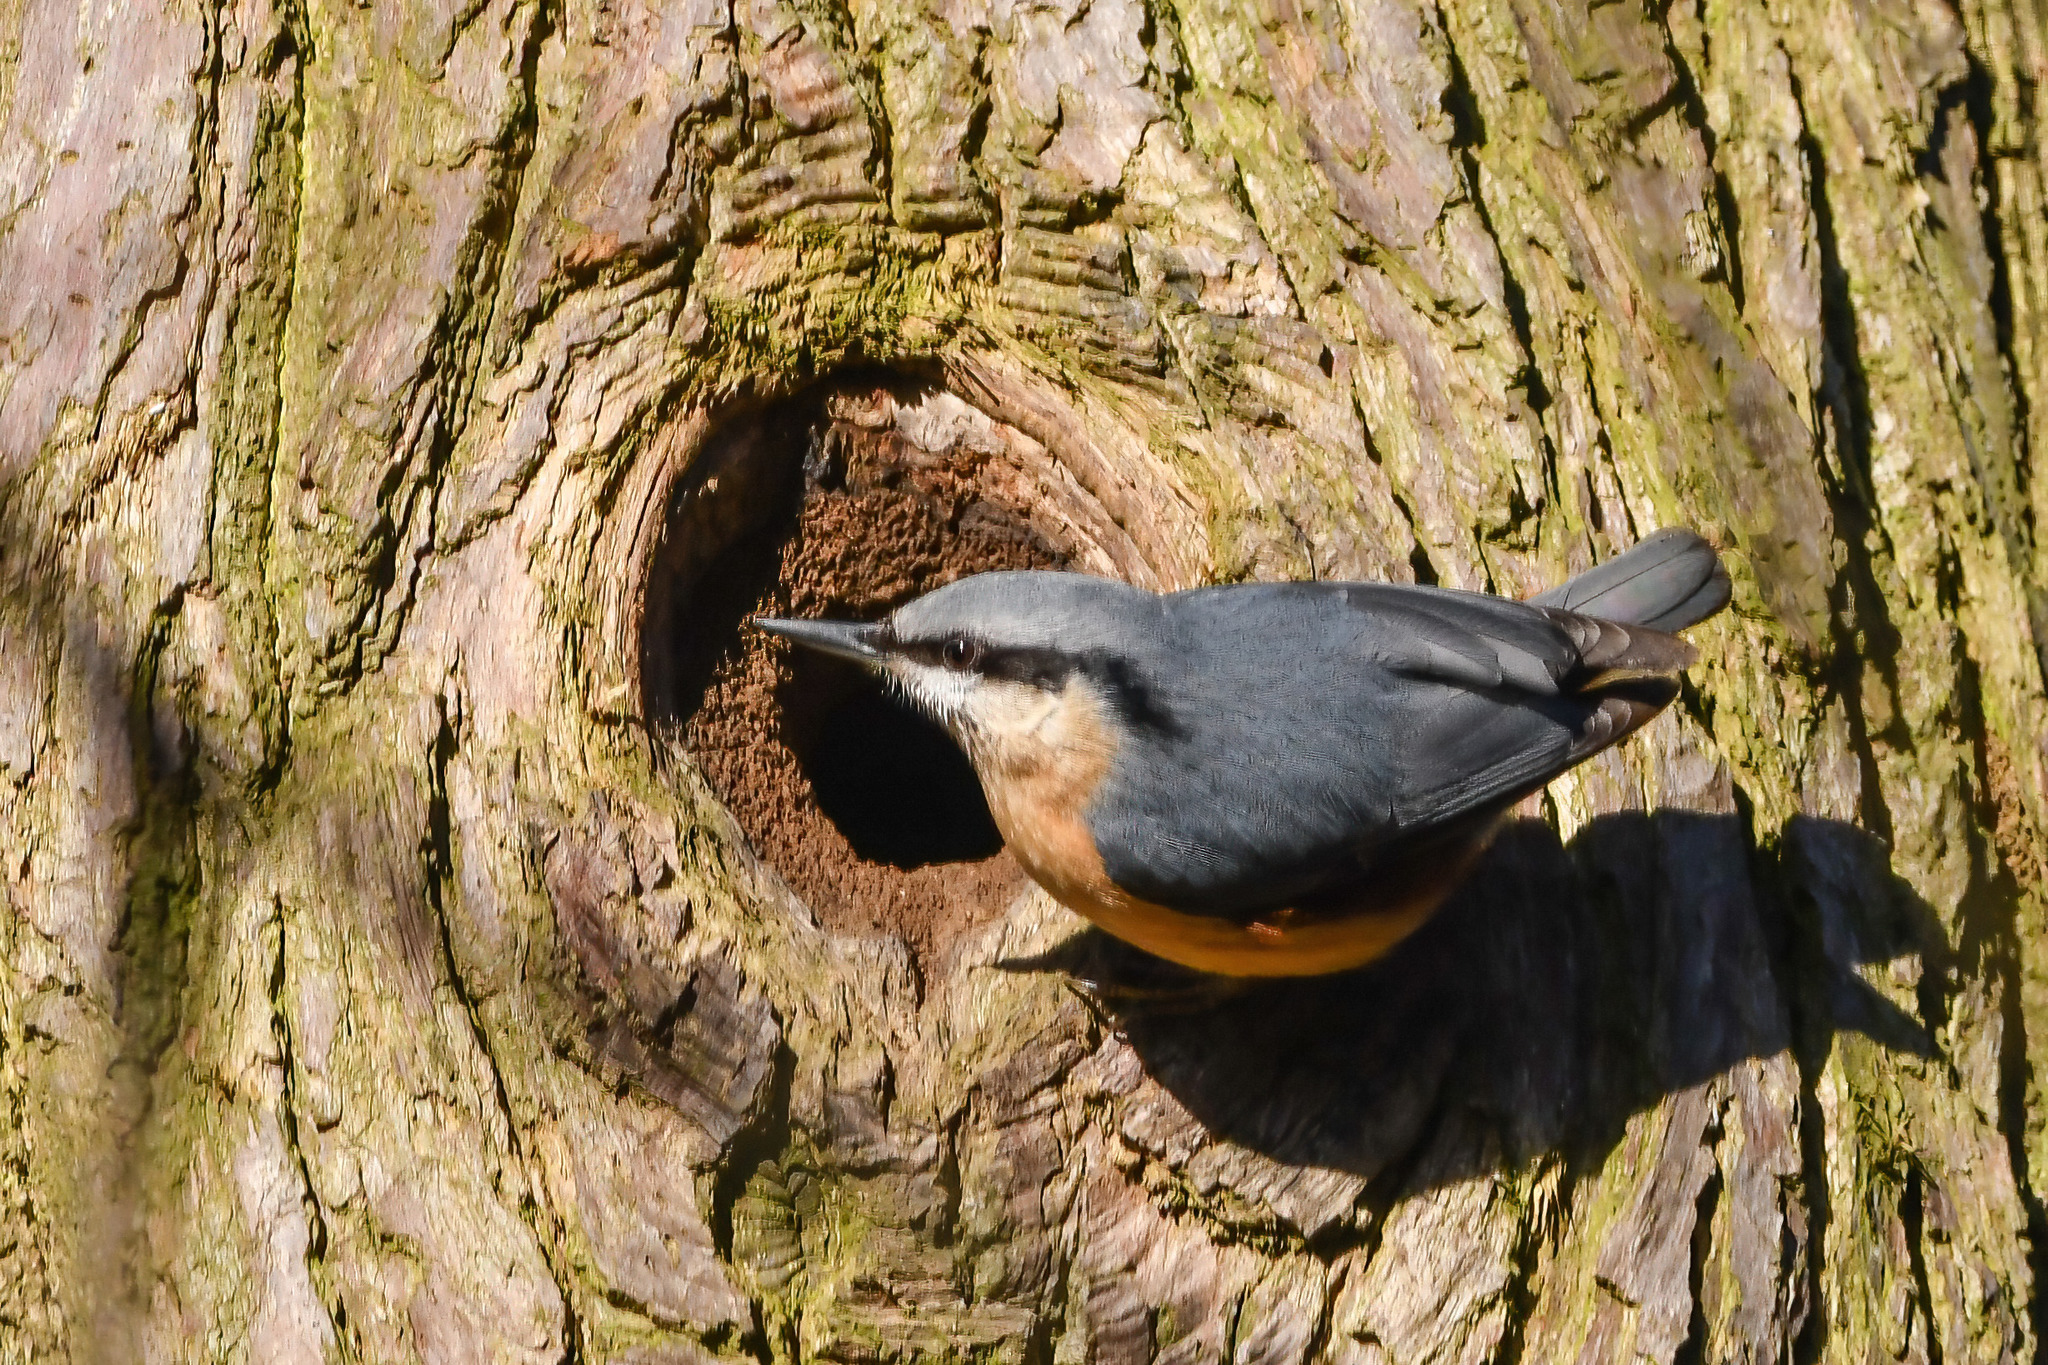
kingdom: Animalia
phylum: Chordata
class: Aves
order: Passeriformes
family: Sittidae
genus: Sitta
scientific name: Sitta europaea
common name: Eurasian nuthatch
